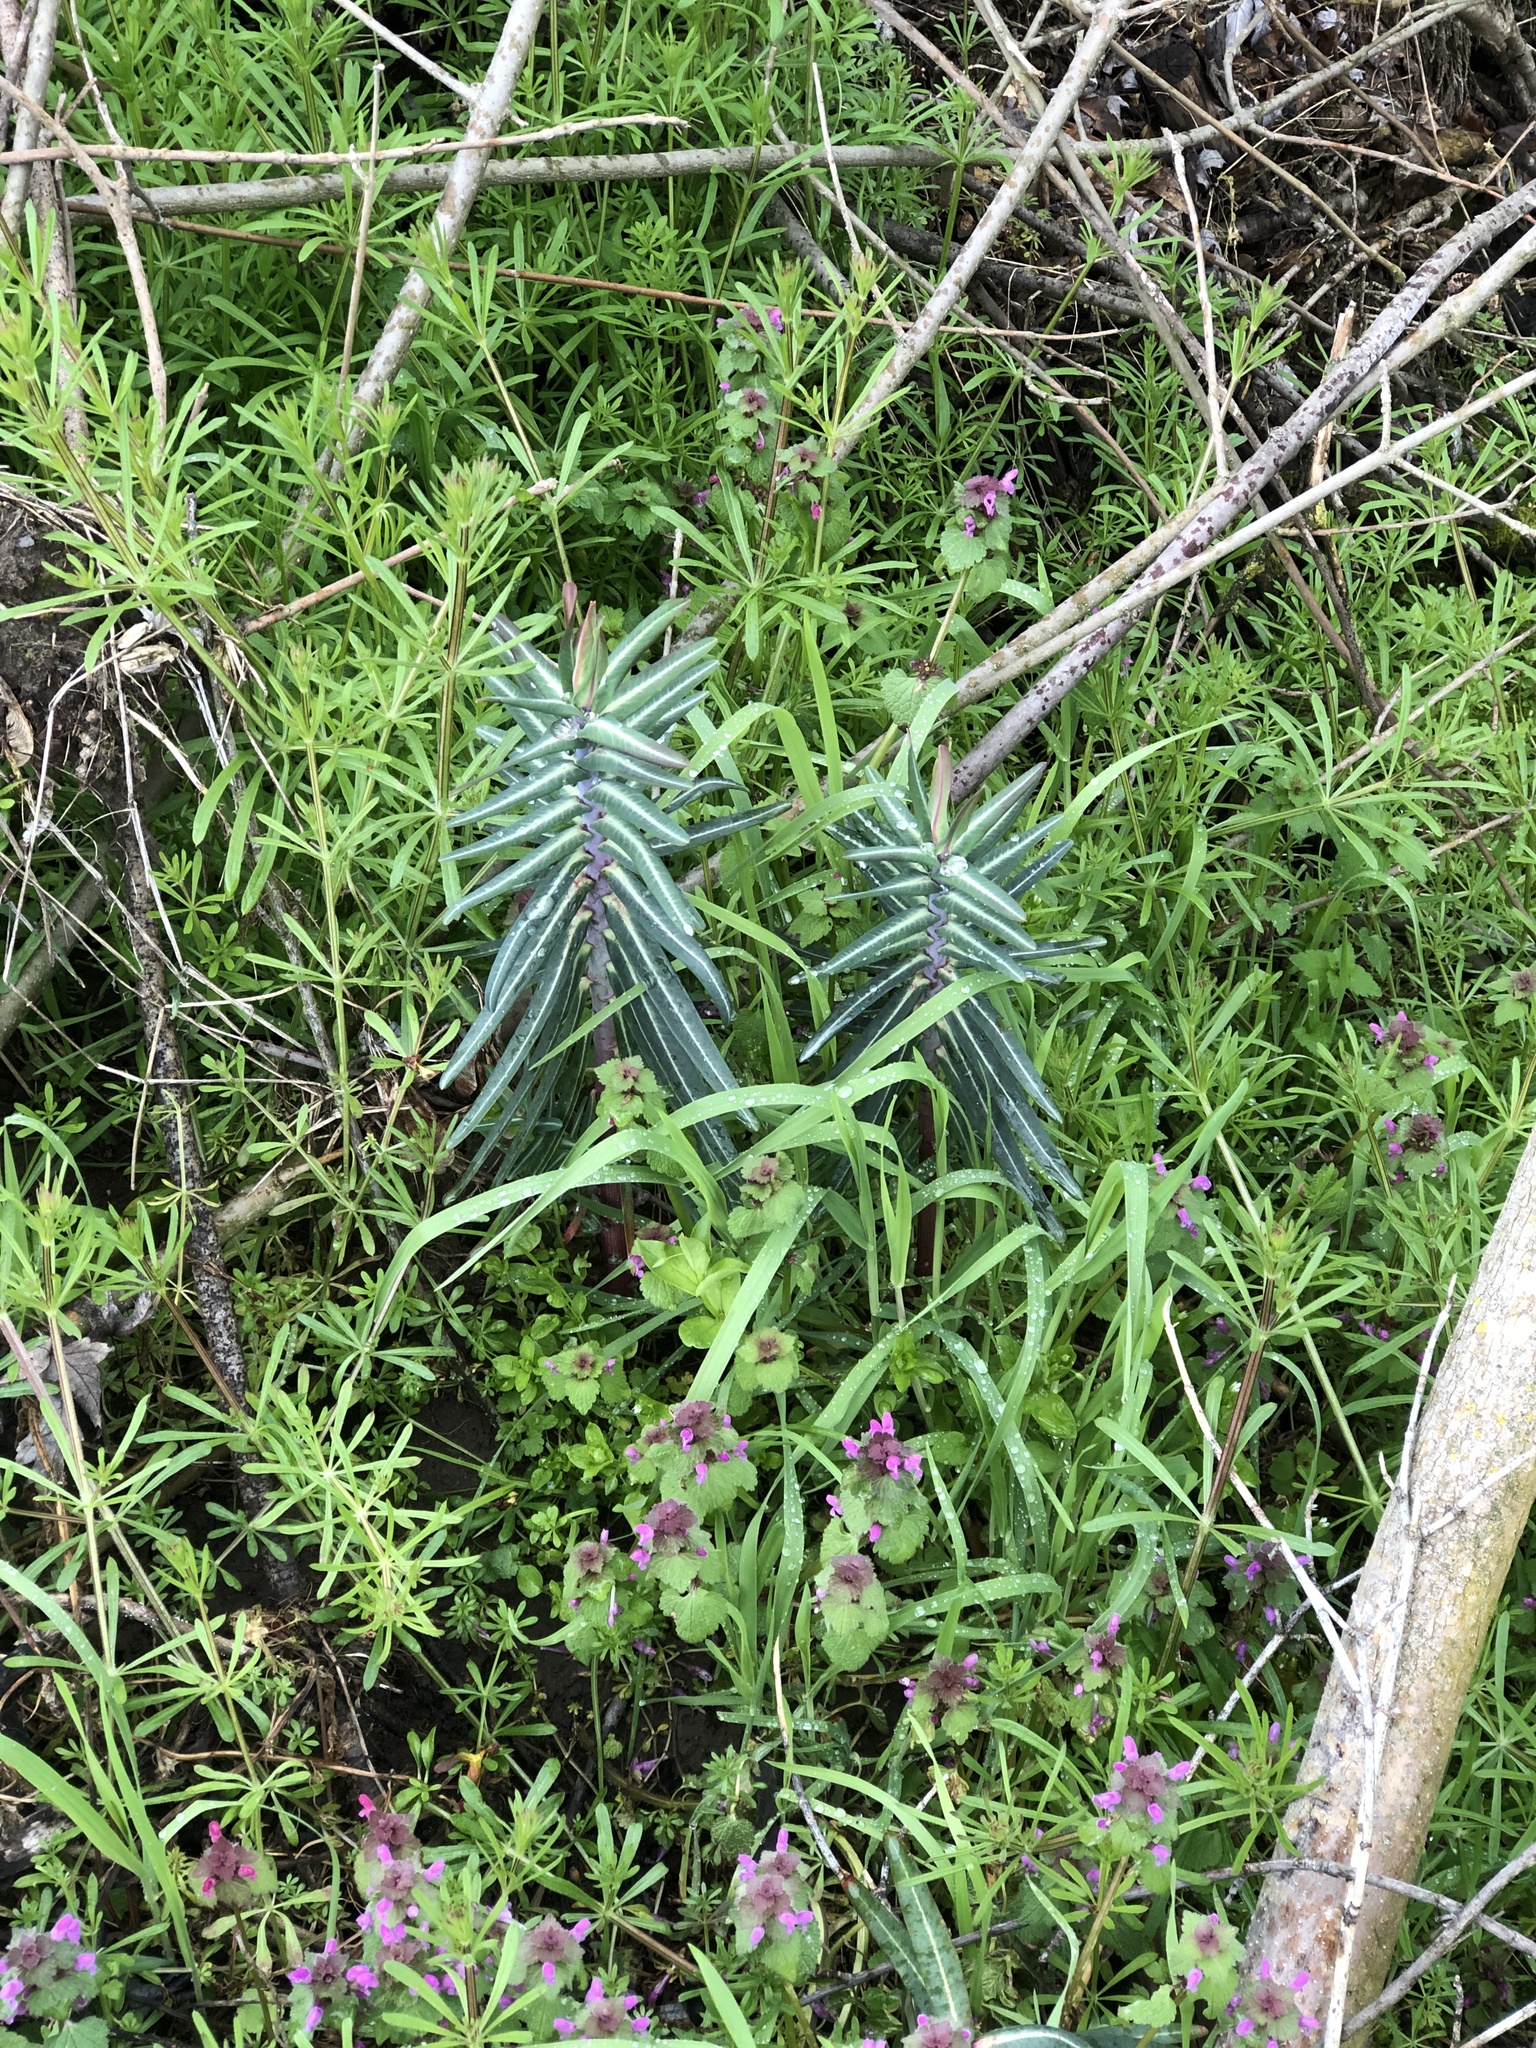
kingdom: Plantae
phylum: Tracheophyta
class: Magnoliopsida
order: Malpighiales
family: Euphorbiaceae
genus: Euphorbia
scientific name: Euphorbia lathyris
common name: Caper spurge
